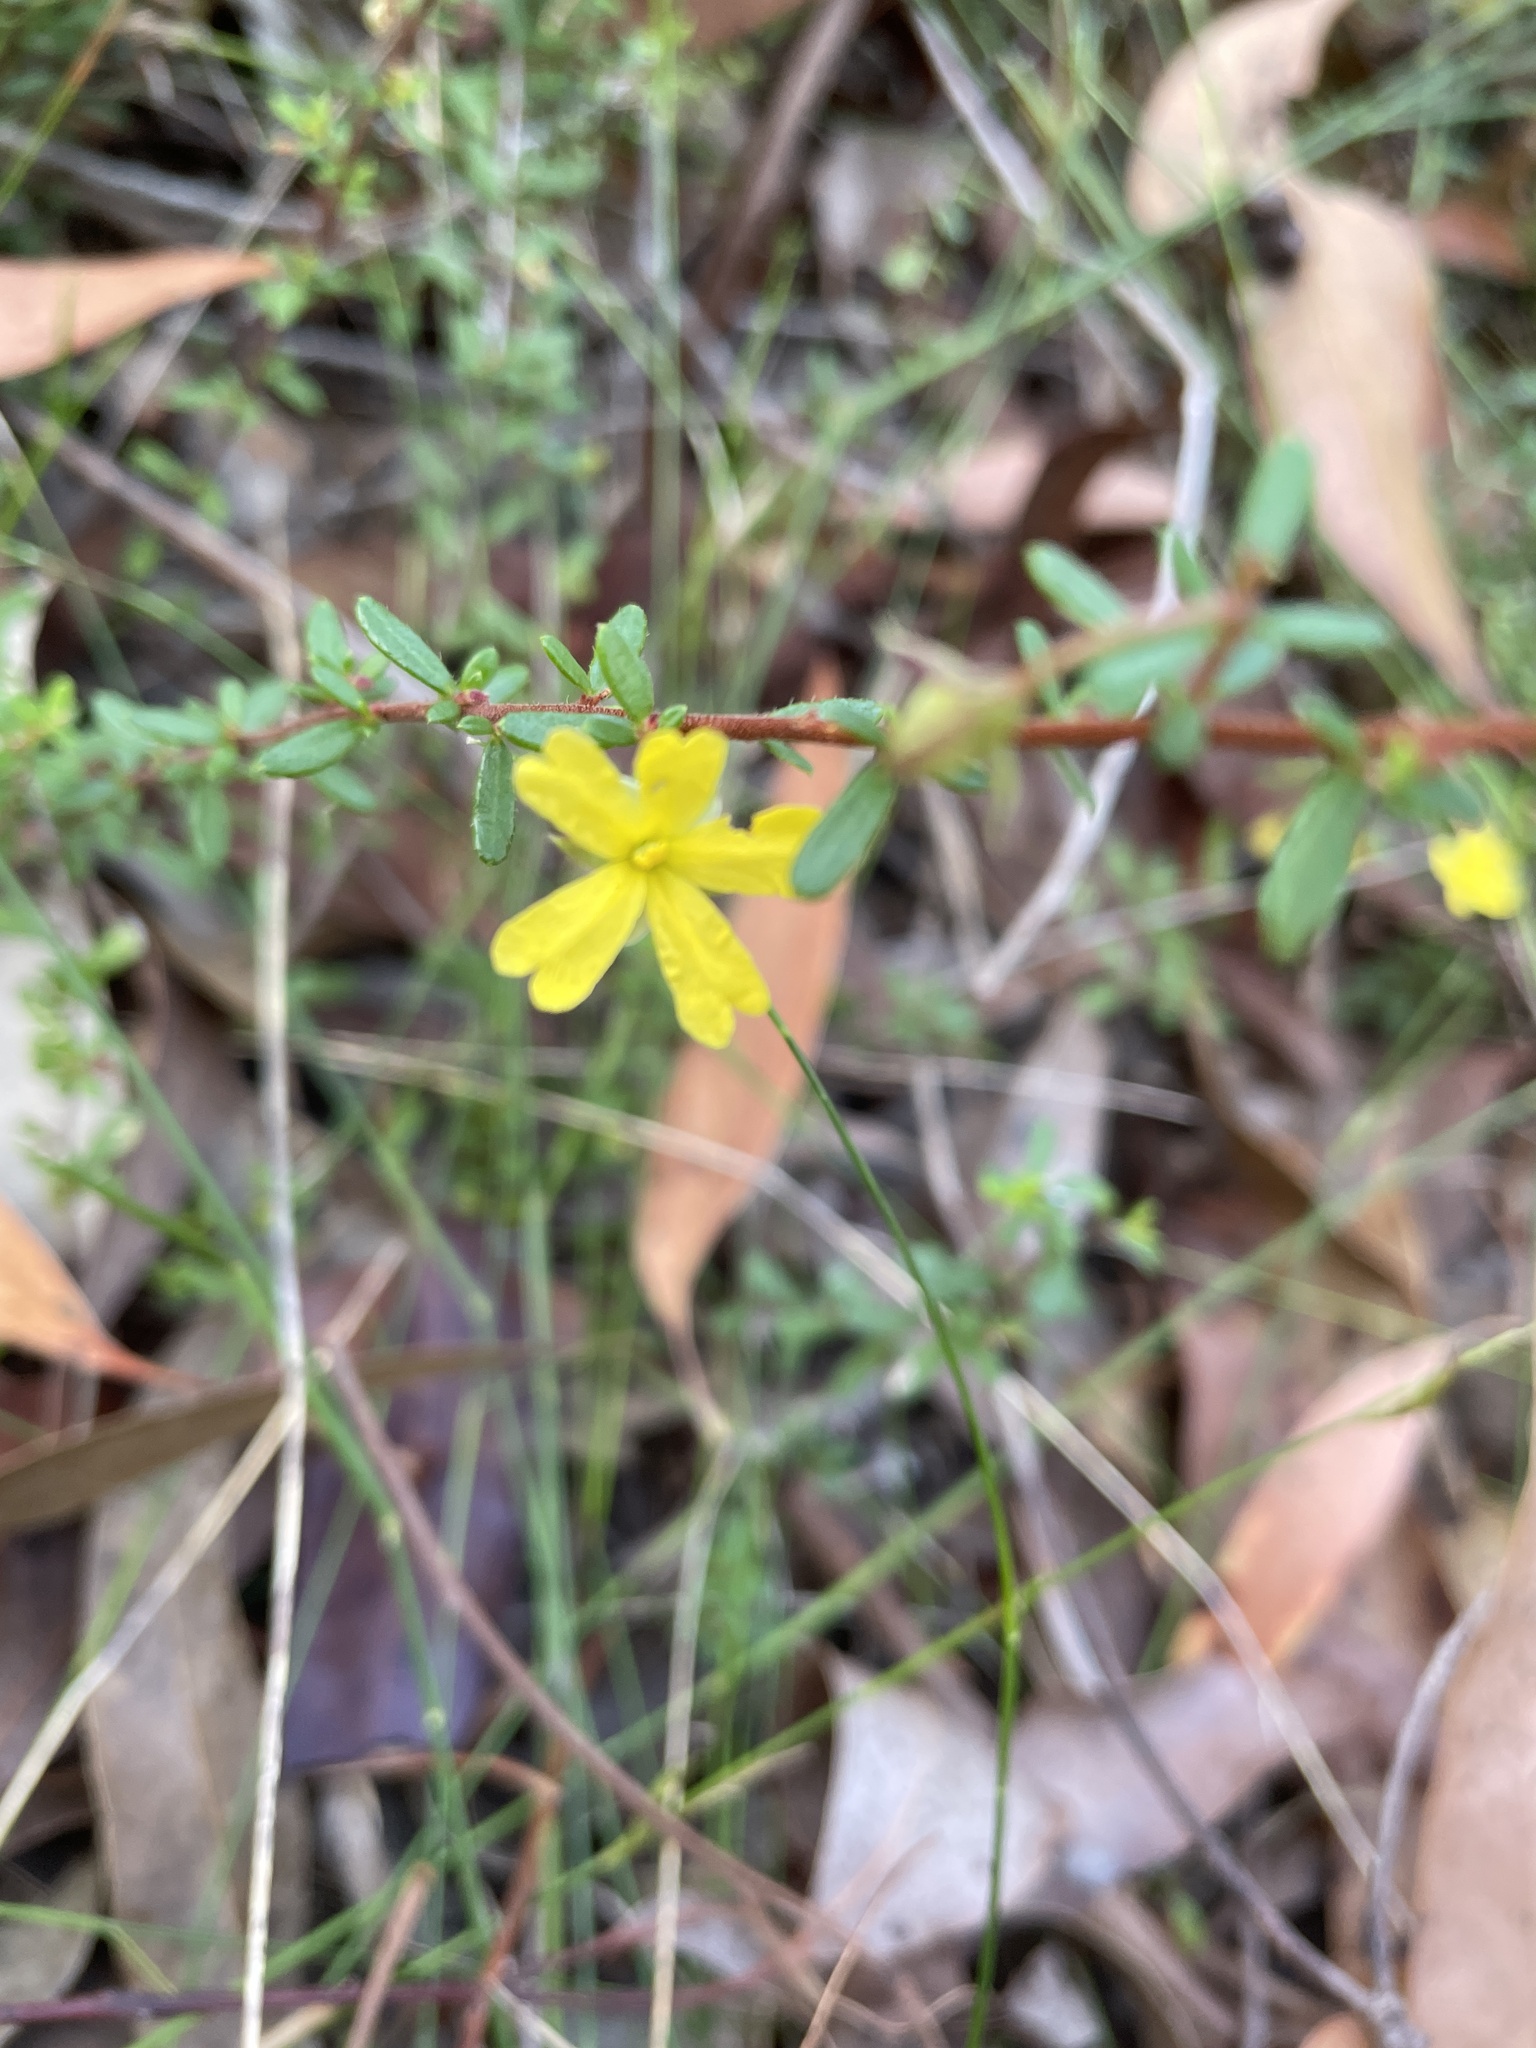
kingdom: Plantae
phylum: Tracheophyta
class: Magnoliopsida
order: Dilleniales
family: Dilleniaceae
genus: Hibbertia
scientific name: Hibbertia empetrifolia
